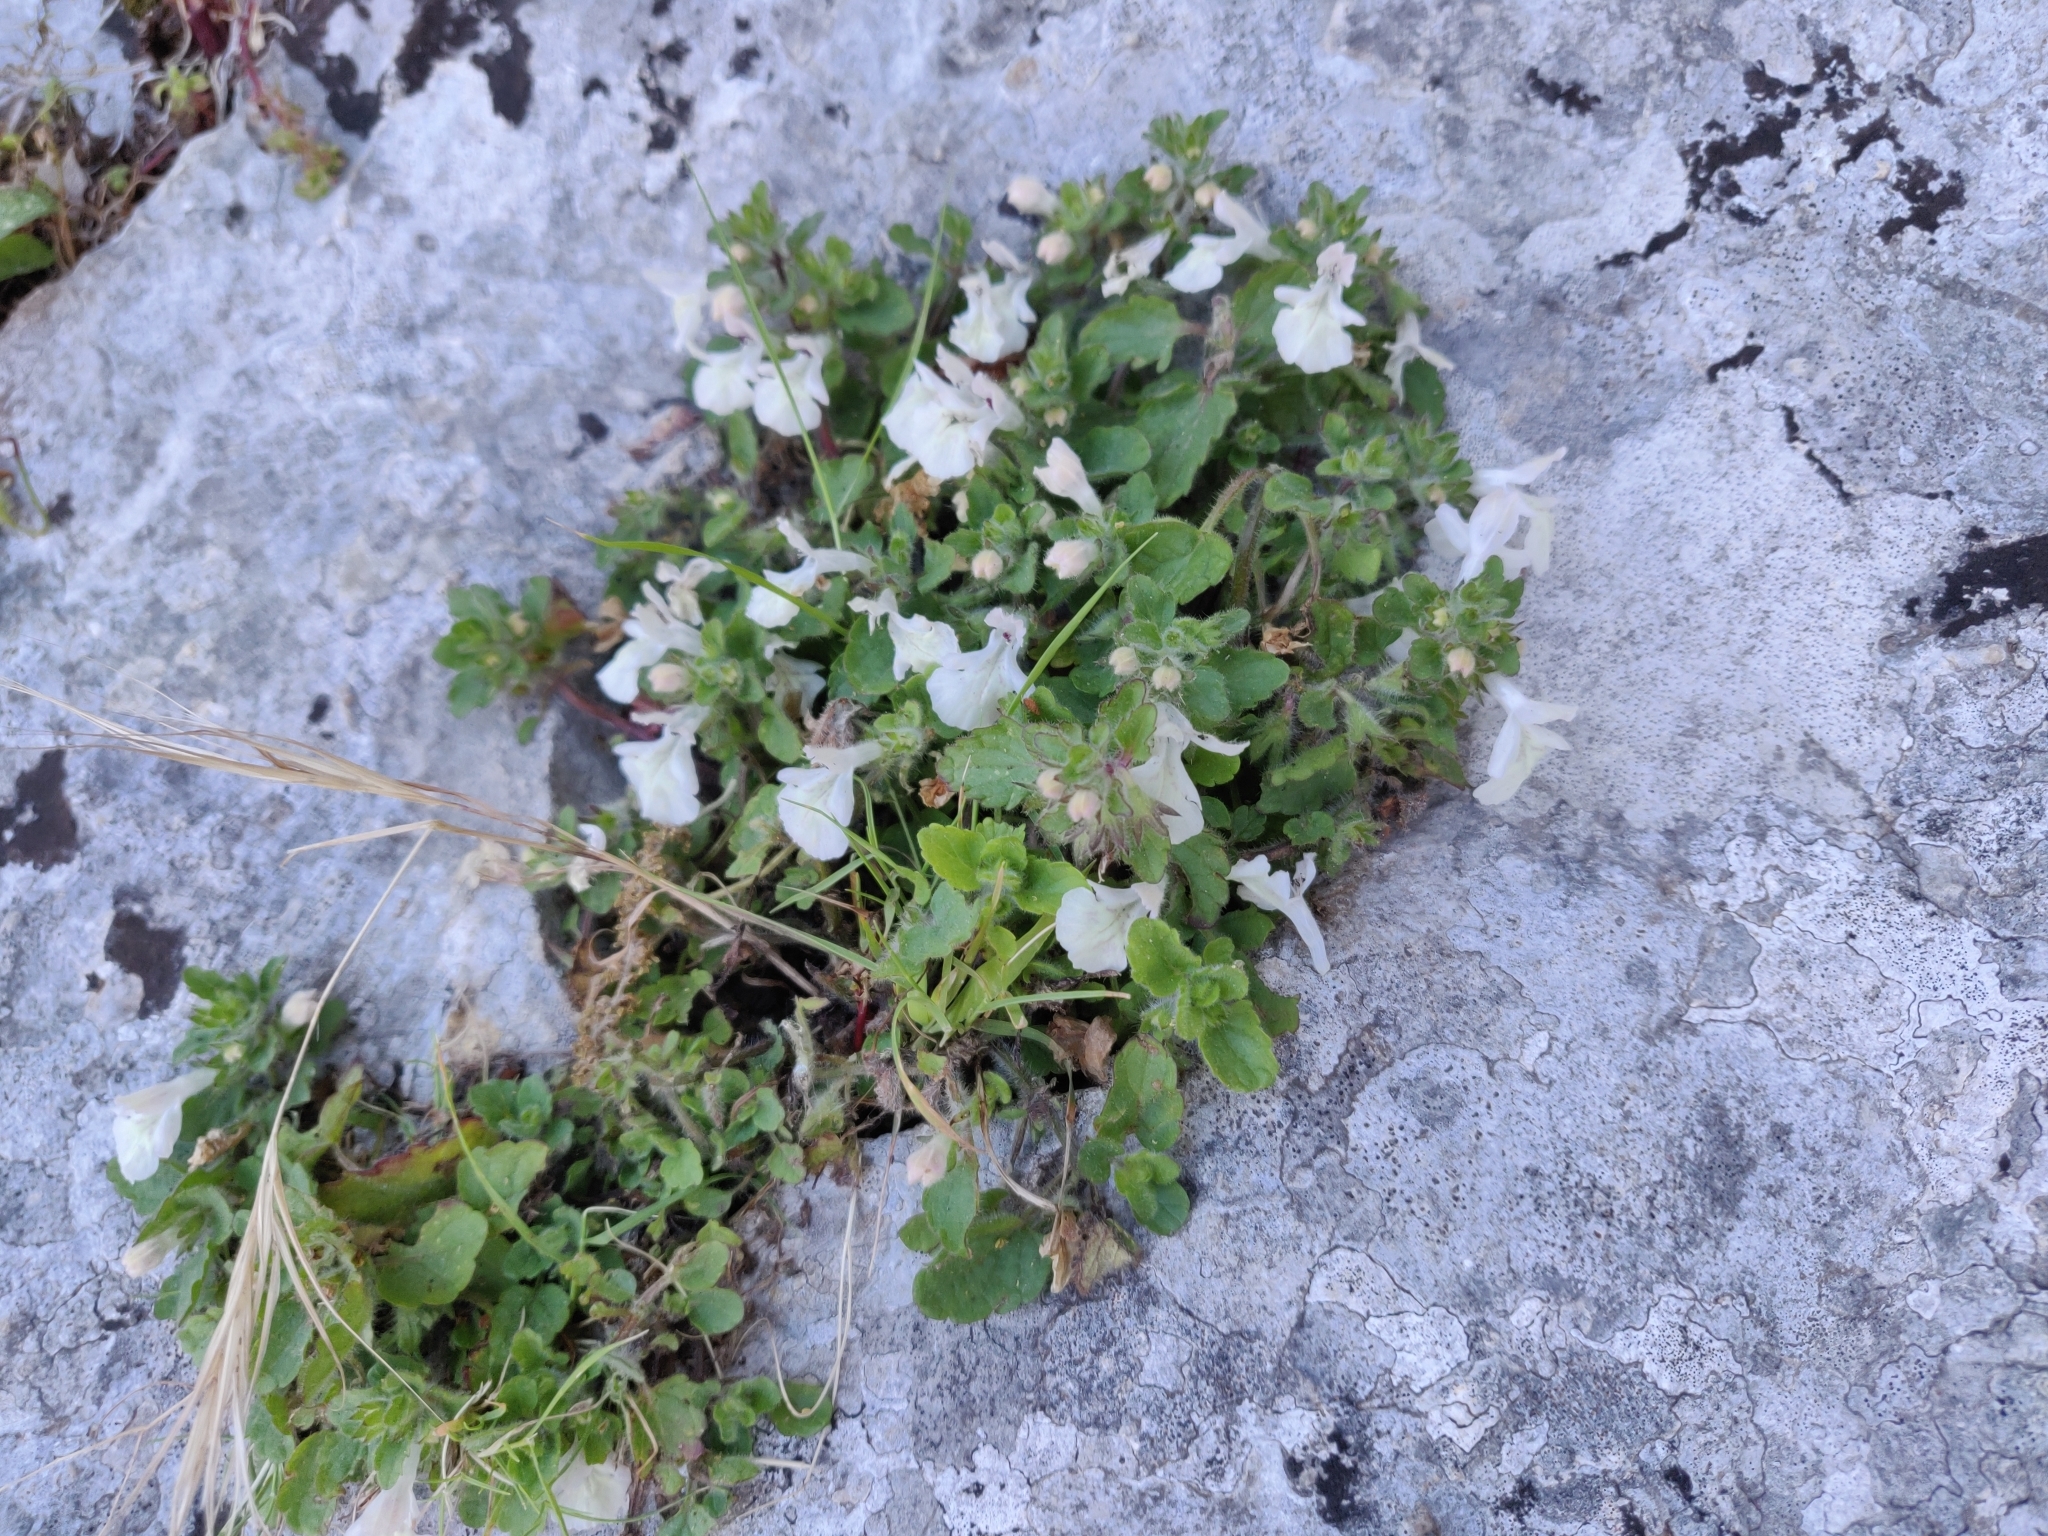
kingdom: Plantae
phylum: Tracheophyta
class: Magnoliopsida
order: Lamiales
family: Lamiaceae
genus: Stachys
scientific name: Stachys corsica
